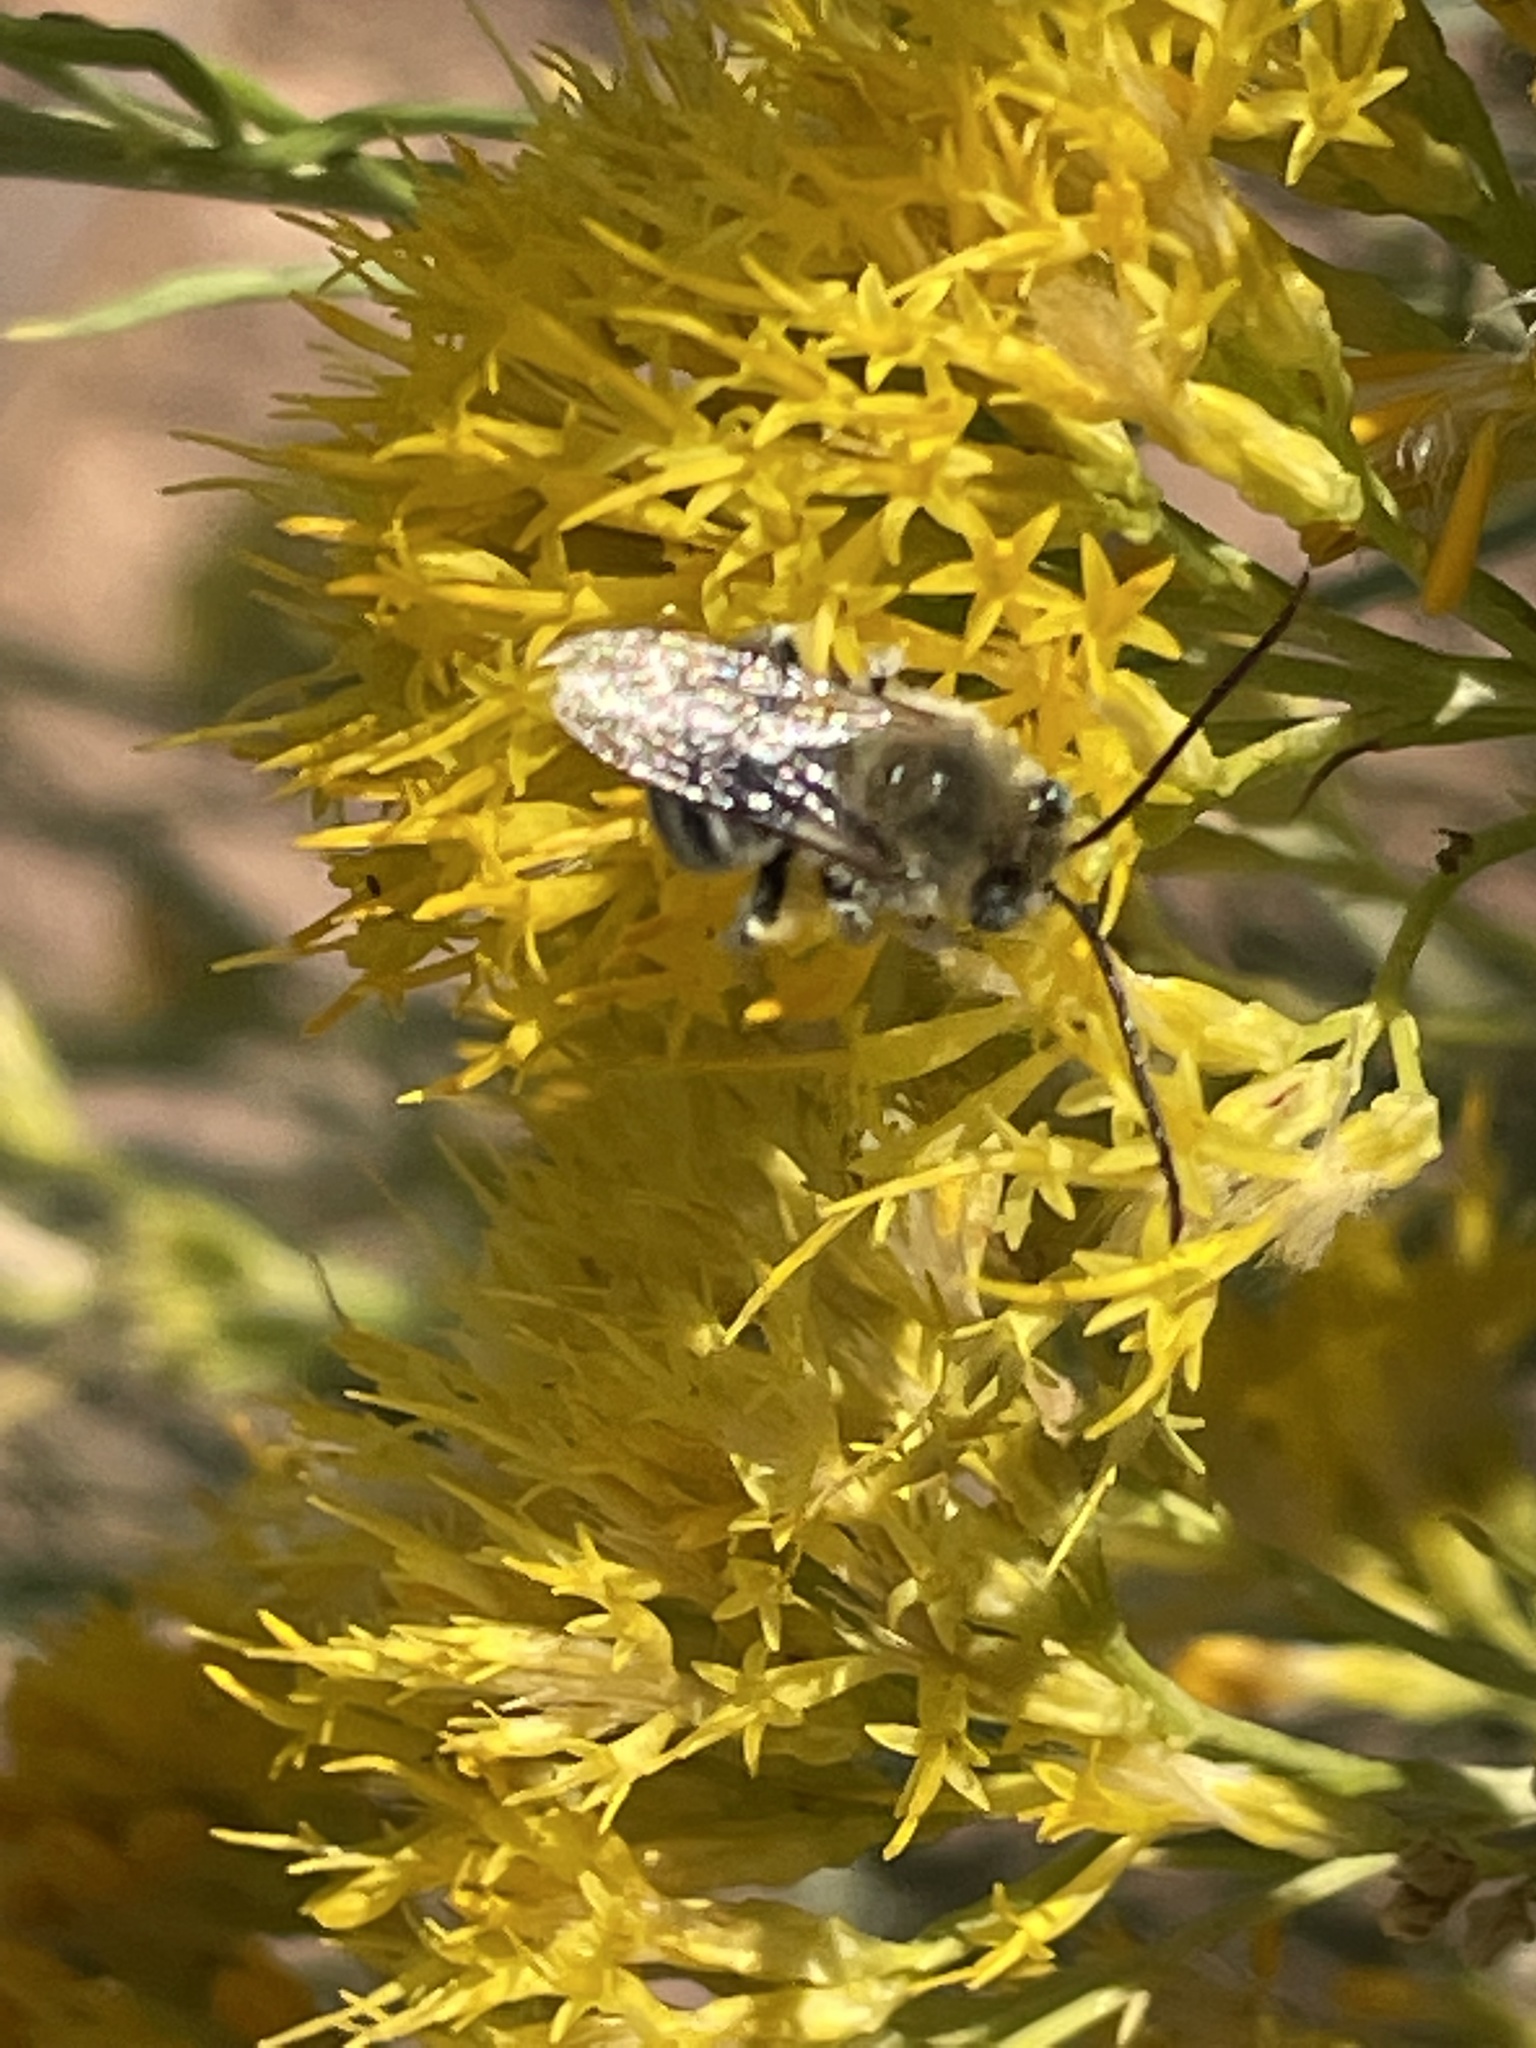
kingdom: Animalia
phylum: Arthropoda
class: Insecta
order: Hymenoptera
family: Apidae
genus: Melissodes
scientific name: Melissodes
